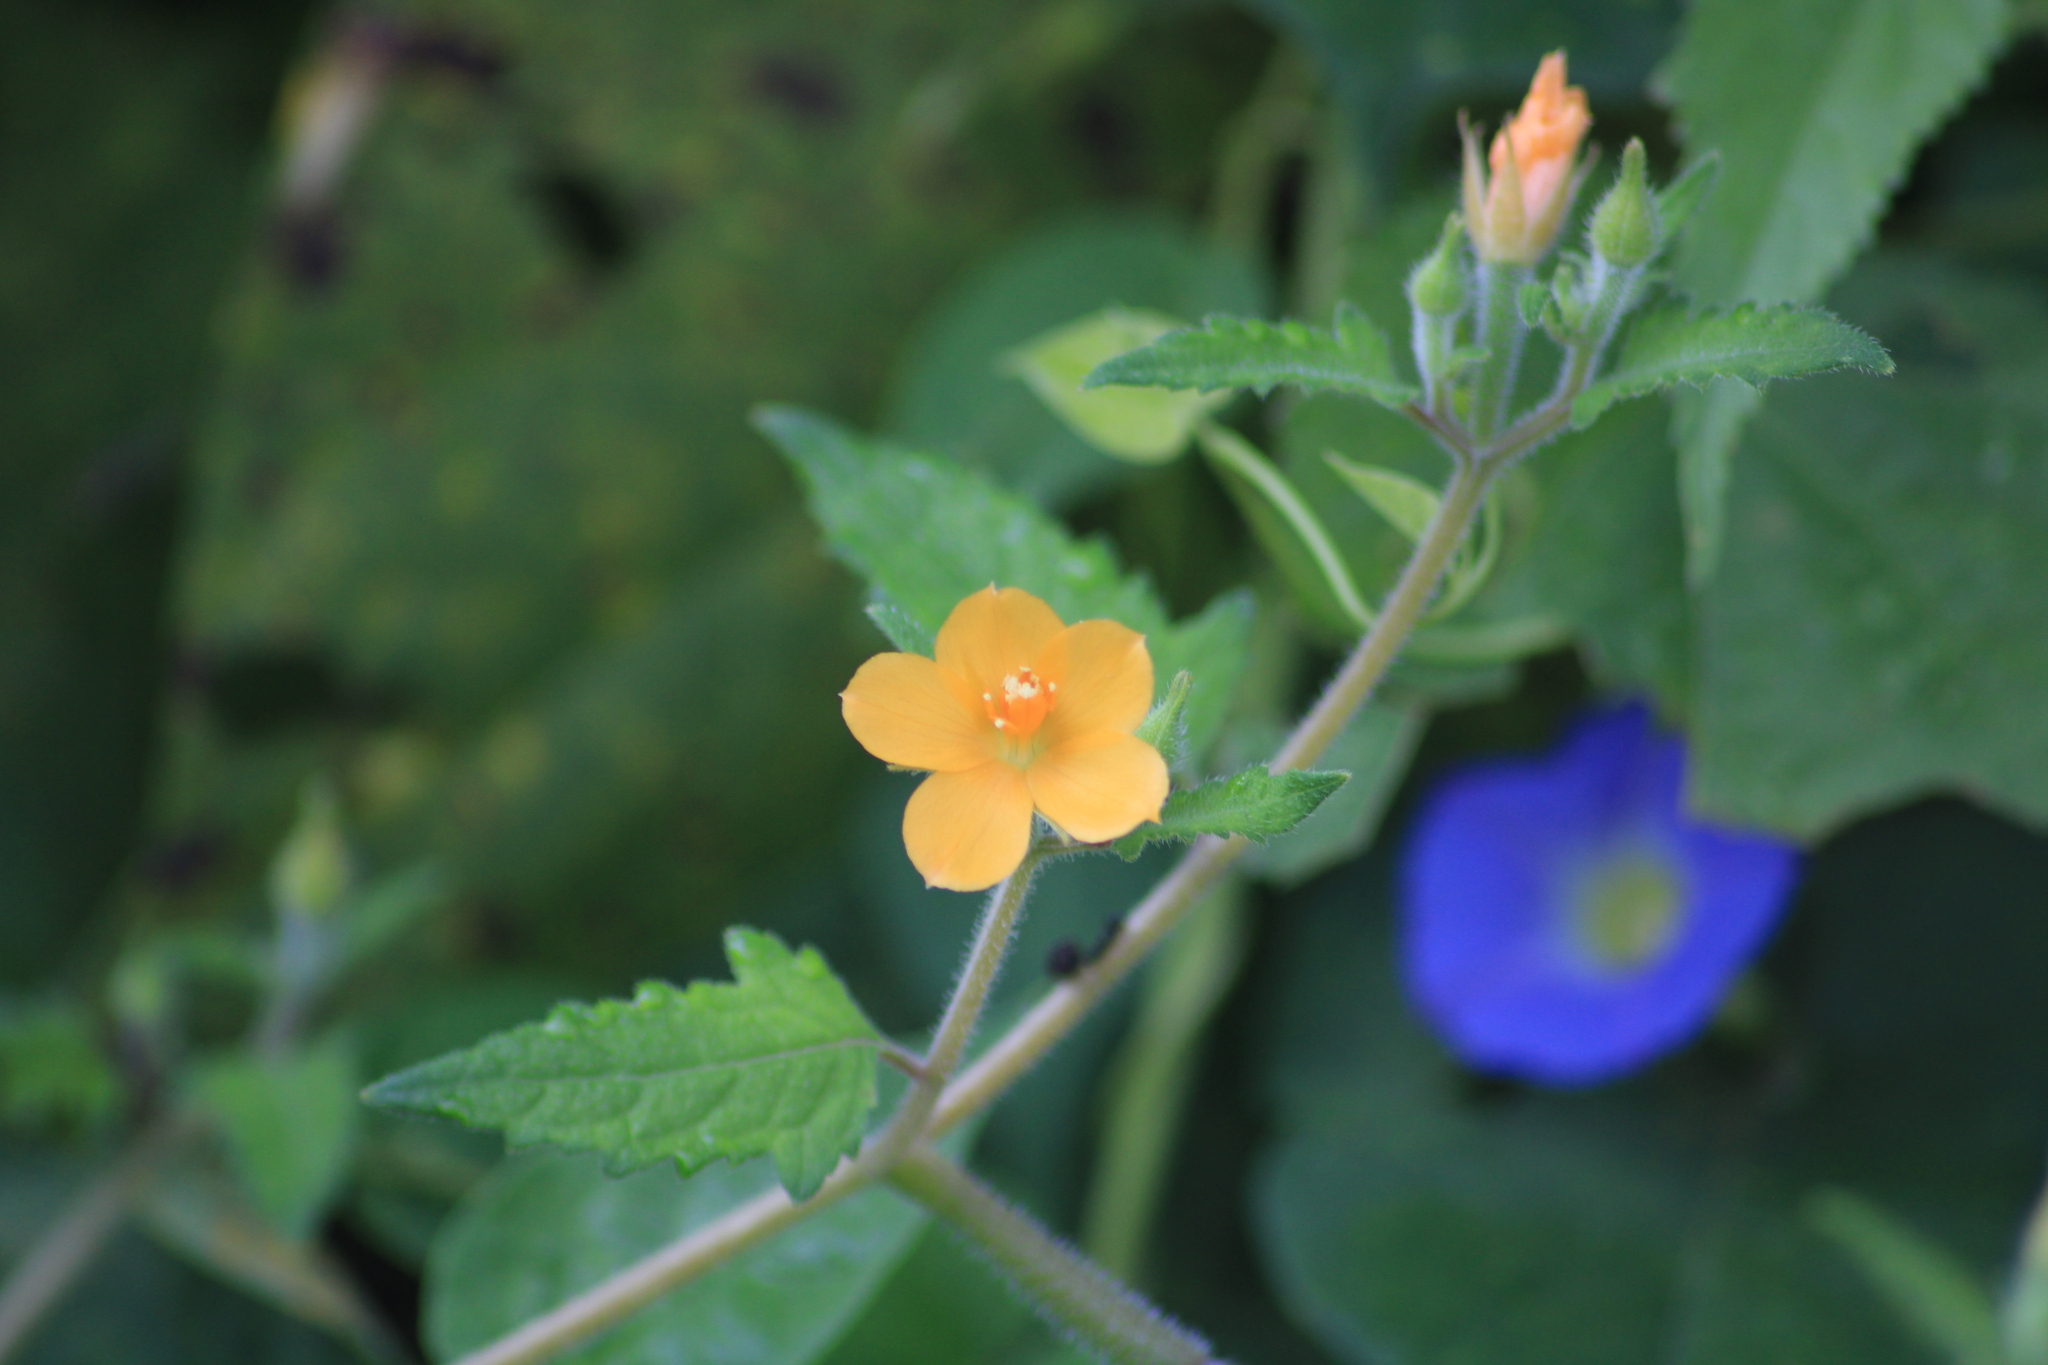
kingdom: Plantae
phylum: Tracheophyta
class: Magnoliopsida
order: Cornales
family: Loasaceae
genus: Mentzelia
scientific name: Mentzelia aspera
